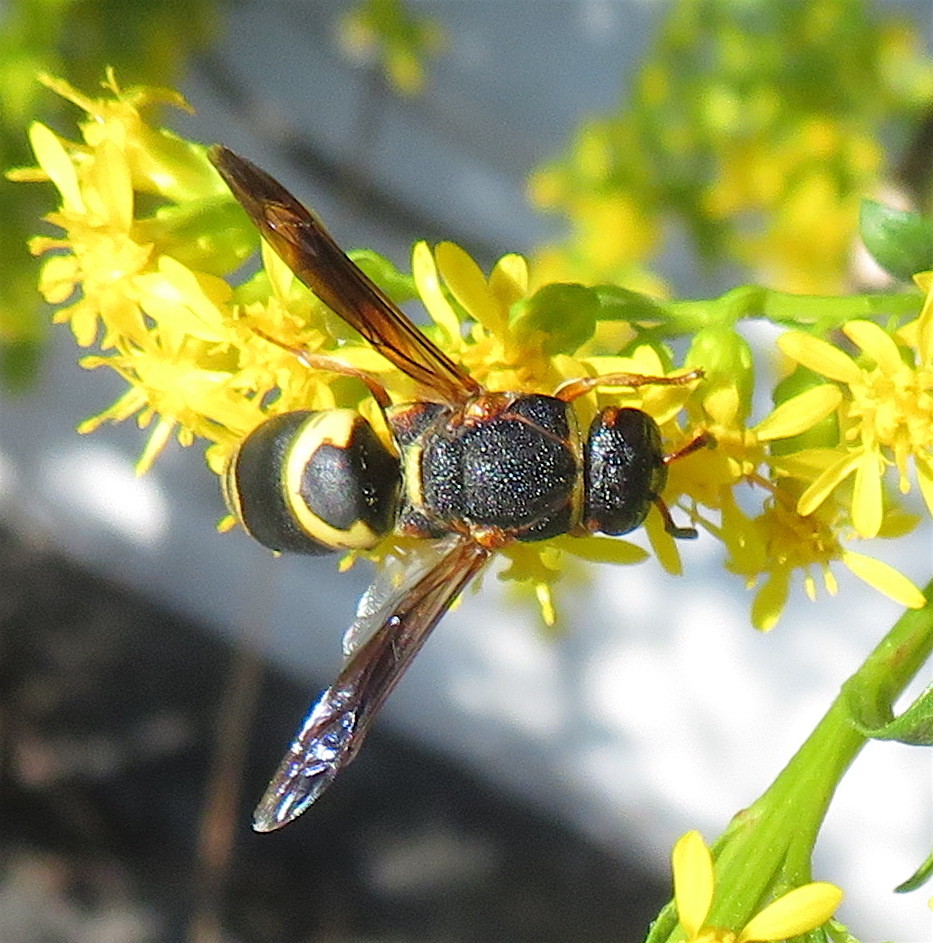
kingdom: Animalia
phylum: Arthropoda
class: Insecta
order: Hymenoptera
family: Eumenidae
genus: Euodynerus
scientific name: Euodynerus hidalgo
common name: Wasp
